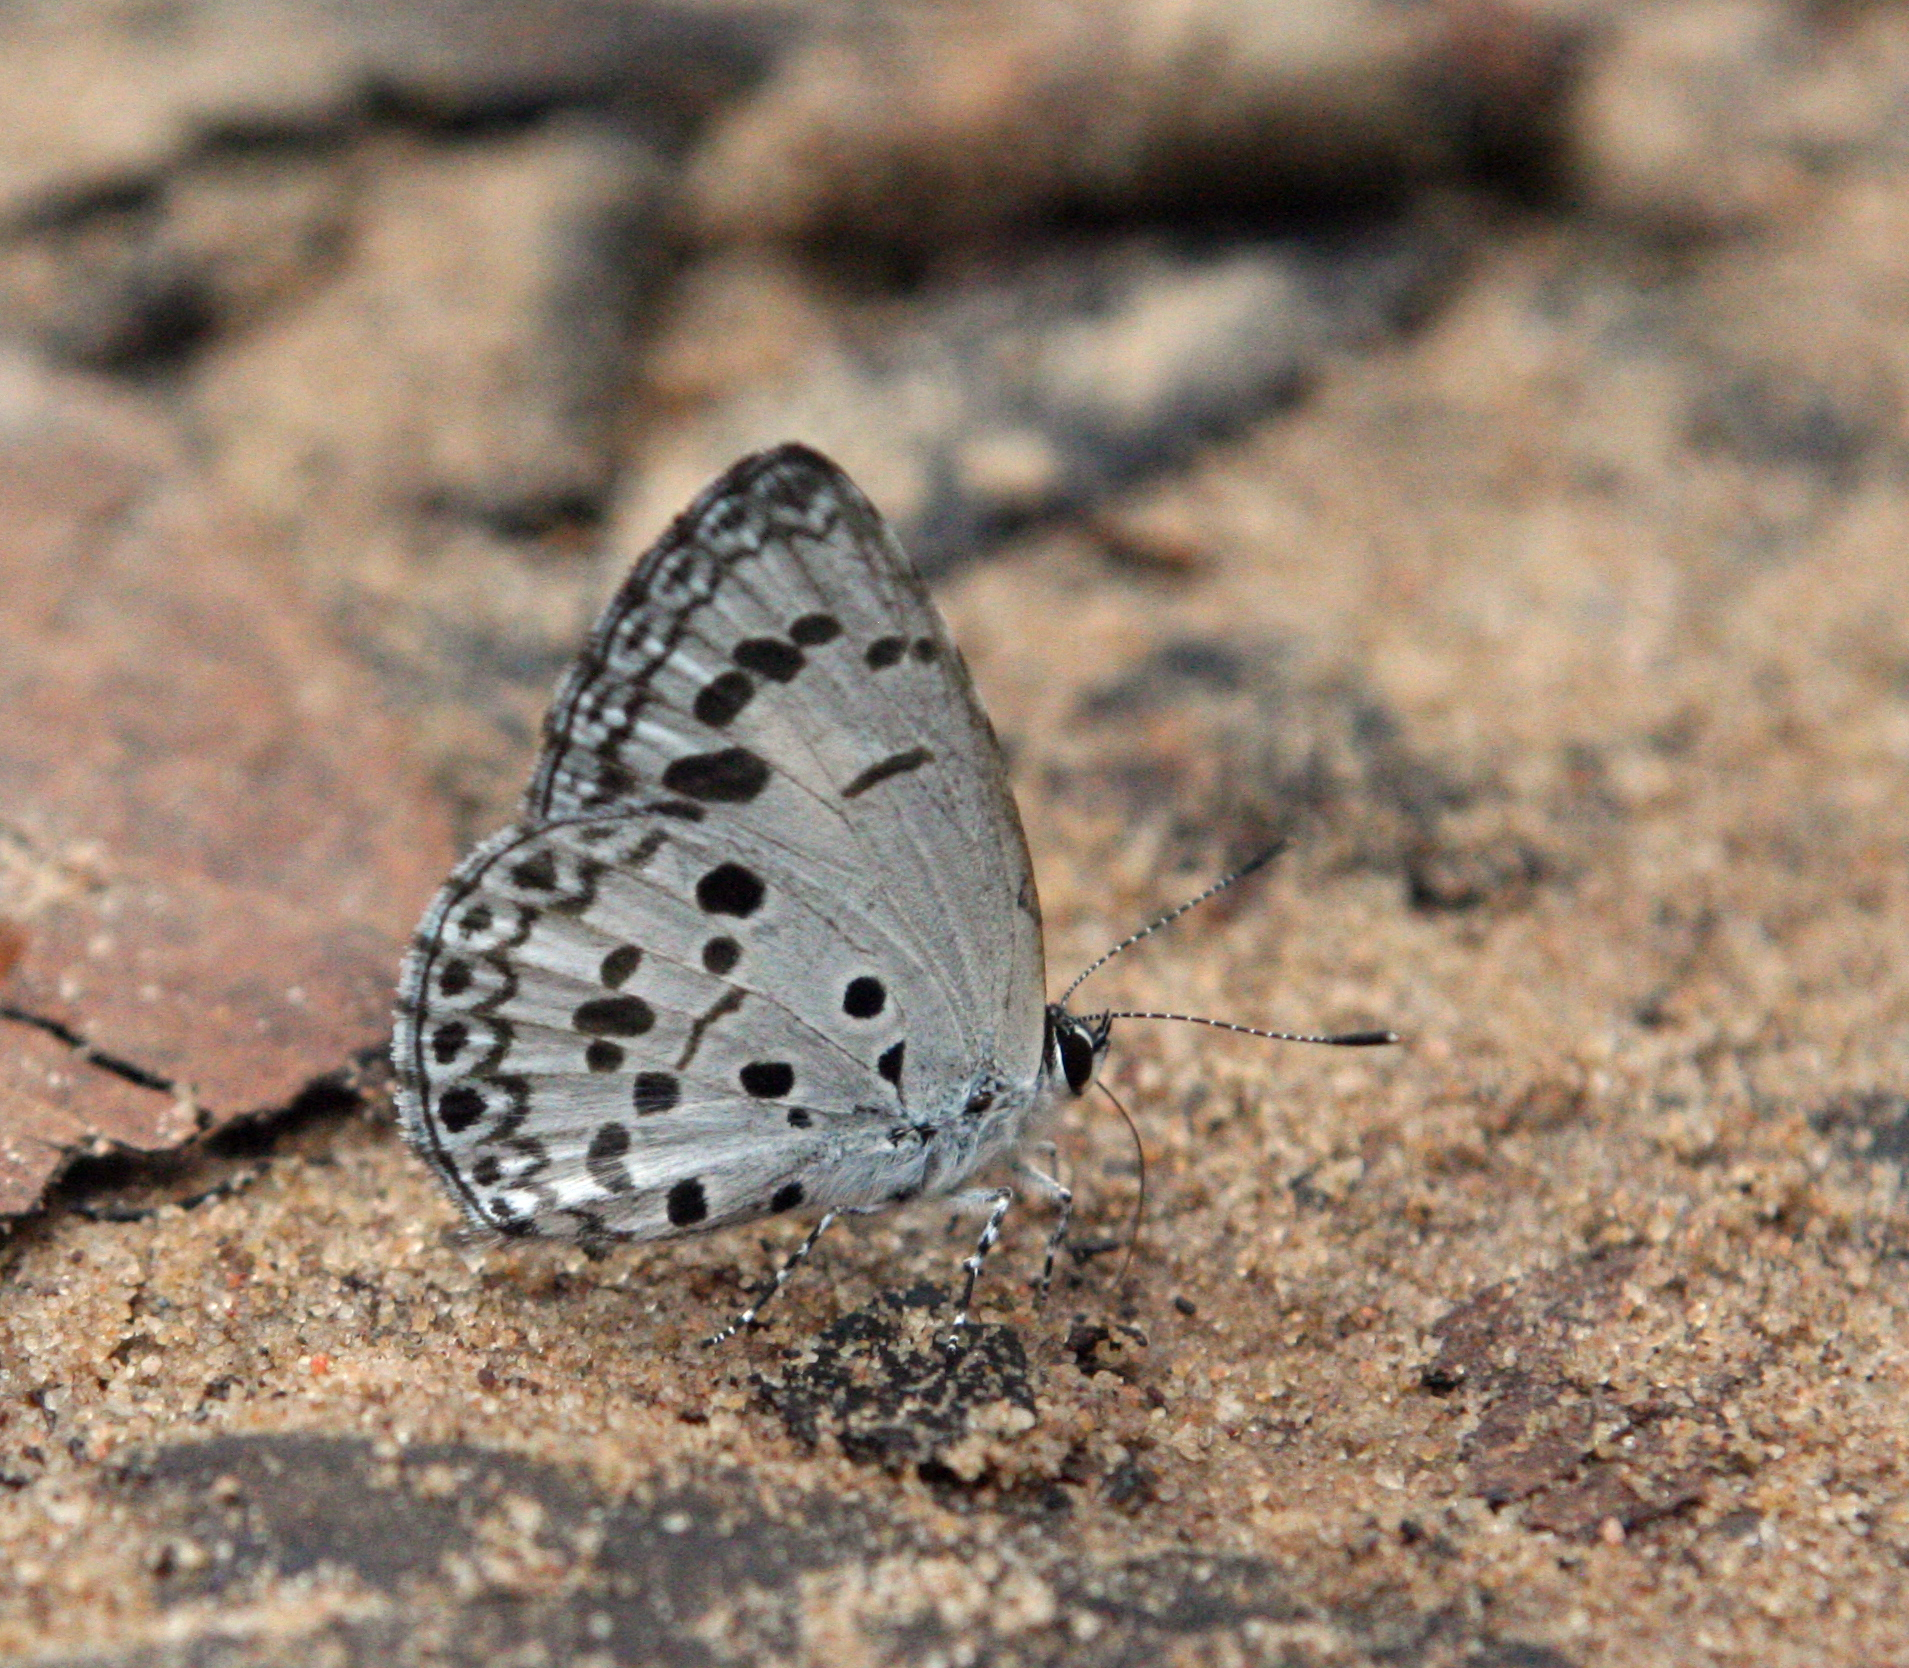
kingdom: Animalia
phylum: Arthropoda
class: Insecta
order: Lepidoptera
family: Lycaenidae
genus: Acytolepis
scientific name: Acytolepis puspa
